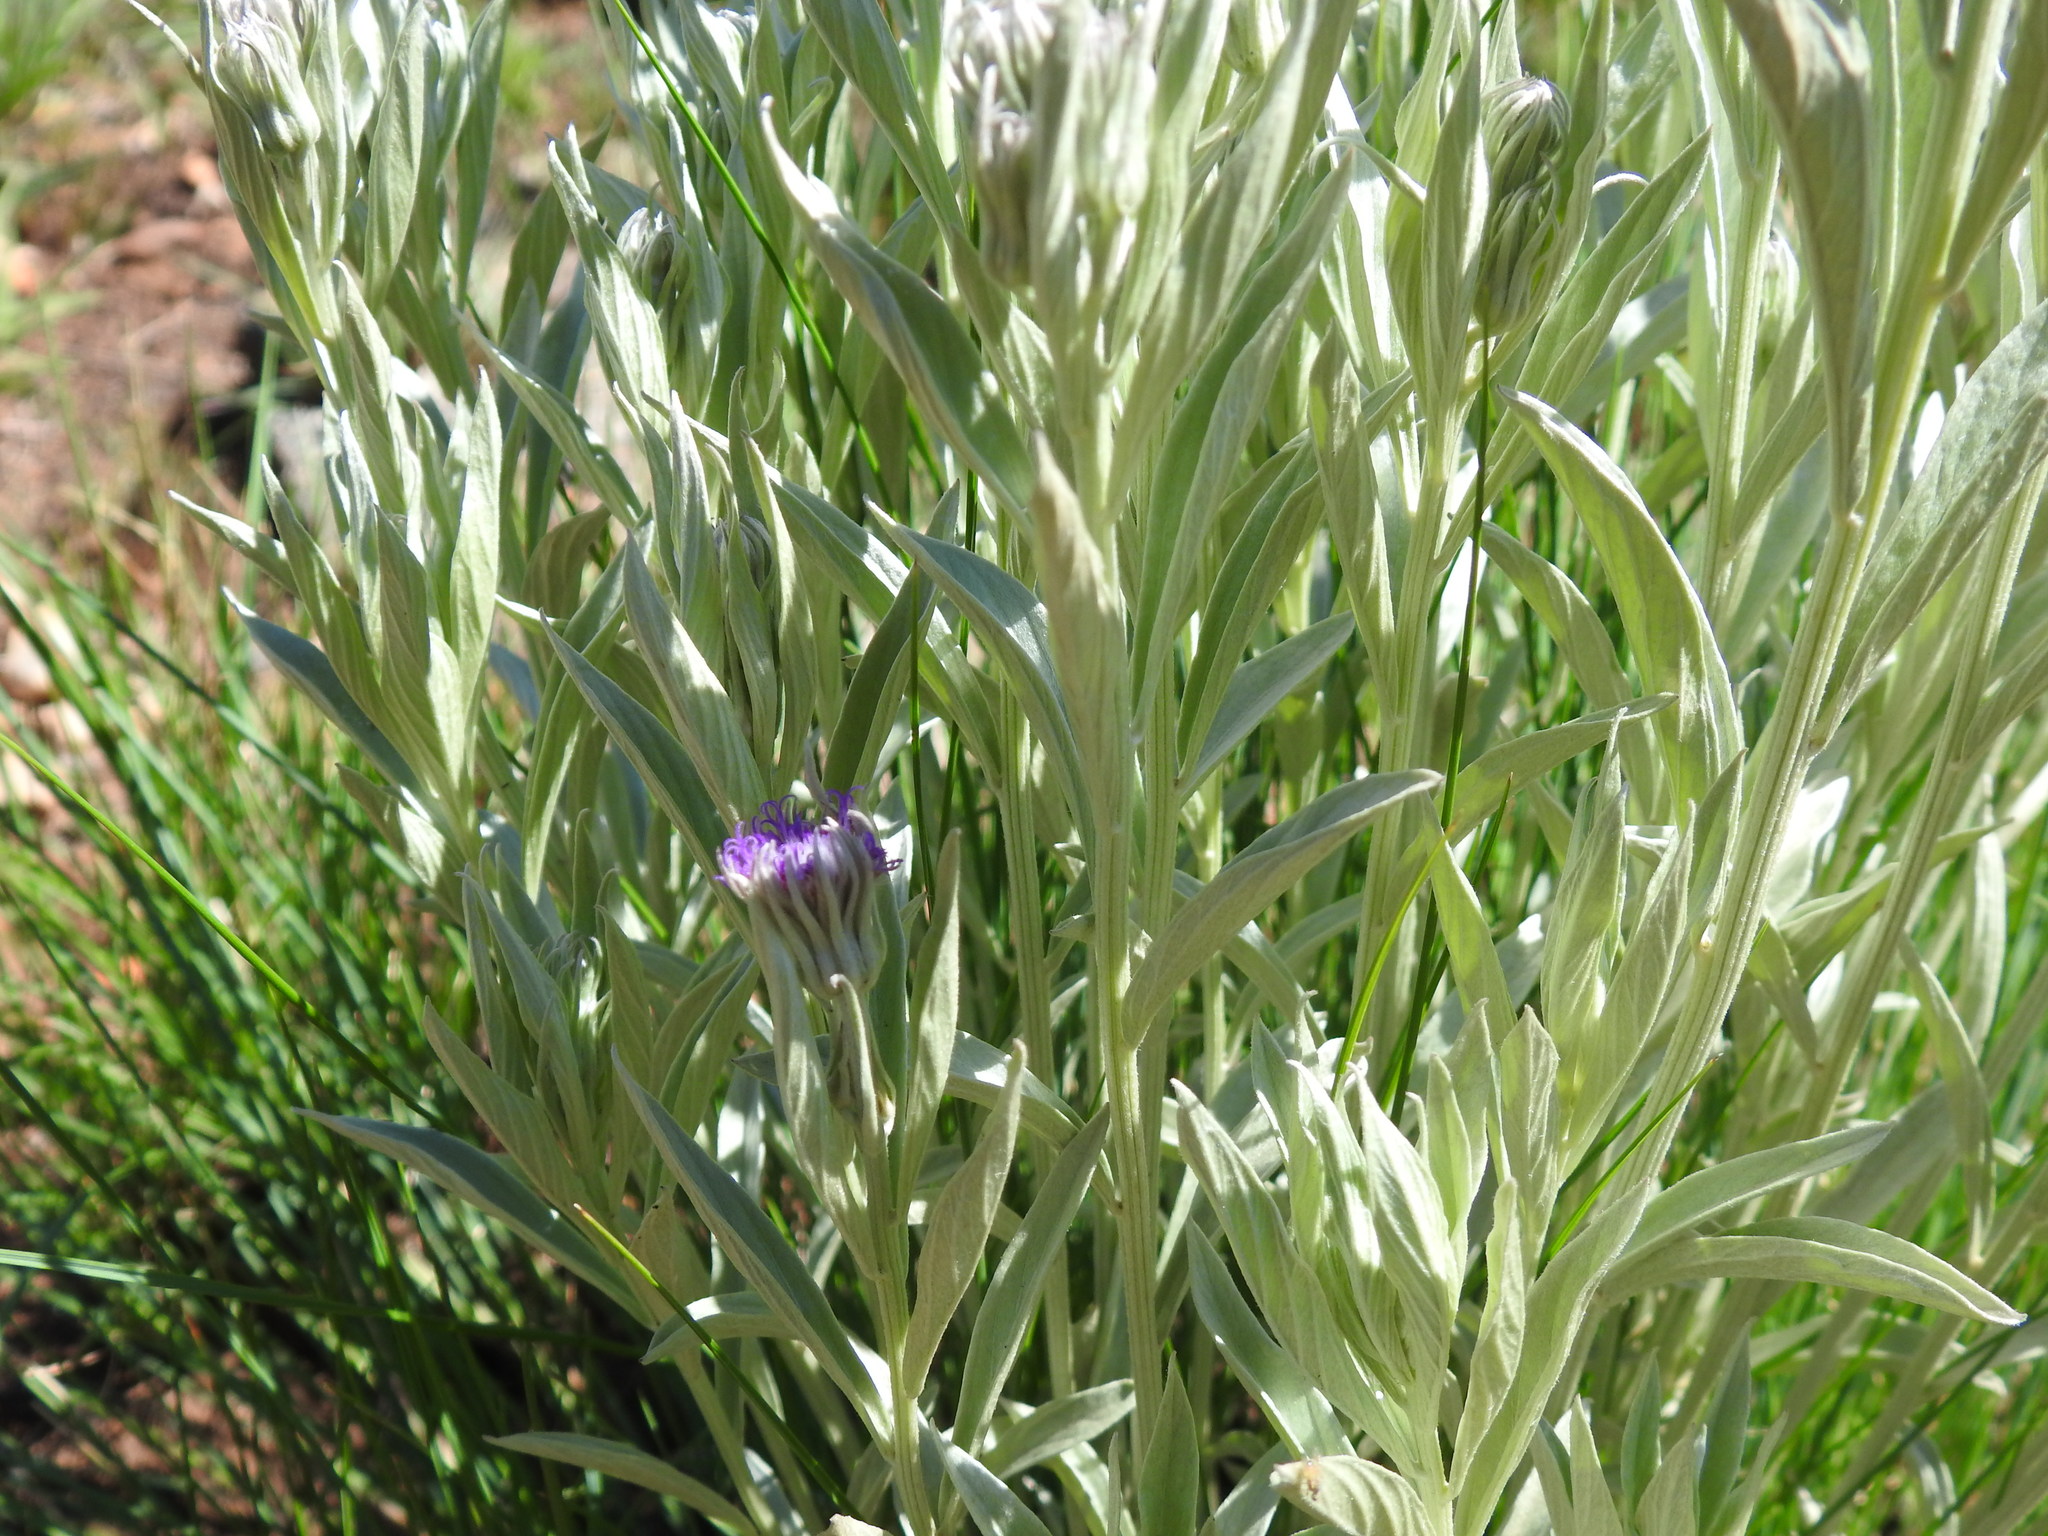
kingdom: Plantae
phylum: Tracheophyta
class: Magnoliopsida
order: Asterales
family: Asteraceae
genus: Hilliardiella
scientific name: Hilliardiella aristata
